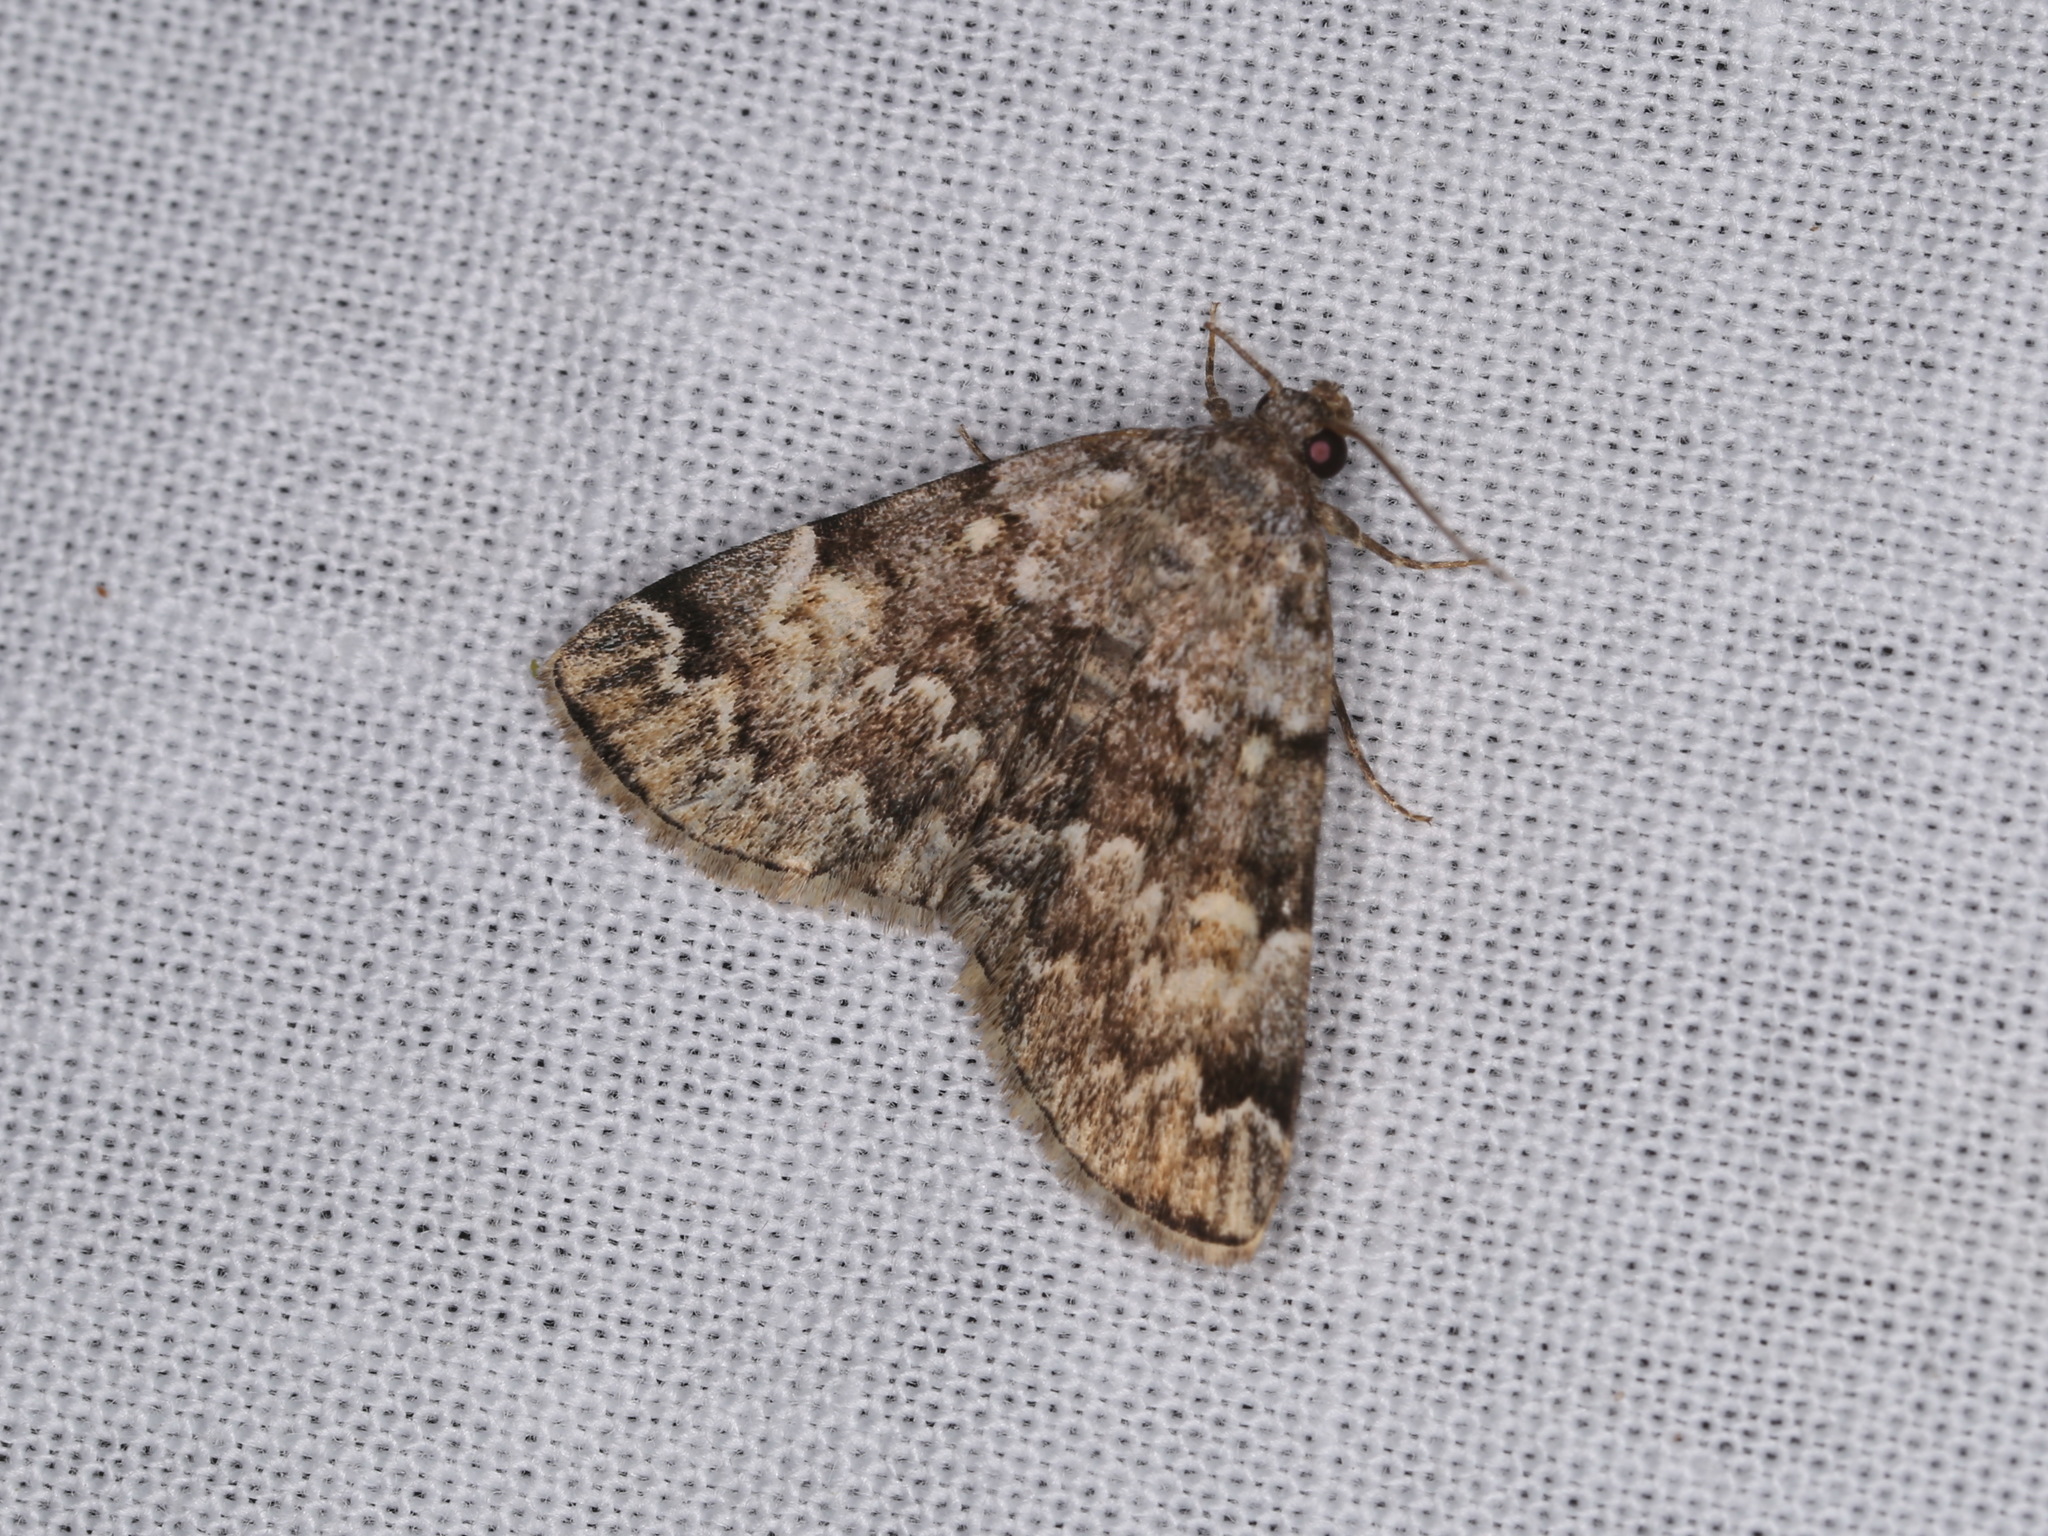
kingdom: Animalia
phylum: Arthropoda
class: Insecta
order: Lepidoptera
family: Erebidae
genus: Idia
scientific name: Idia americalis
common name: American idia moth
